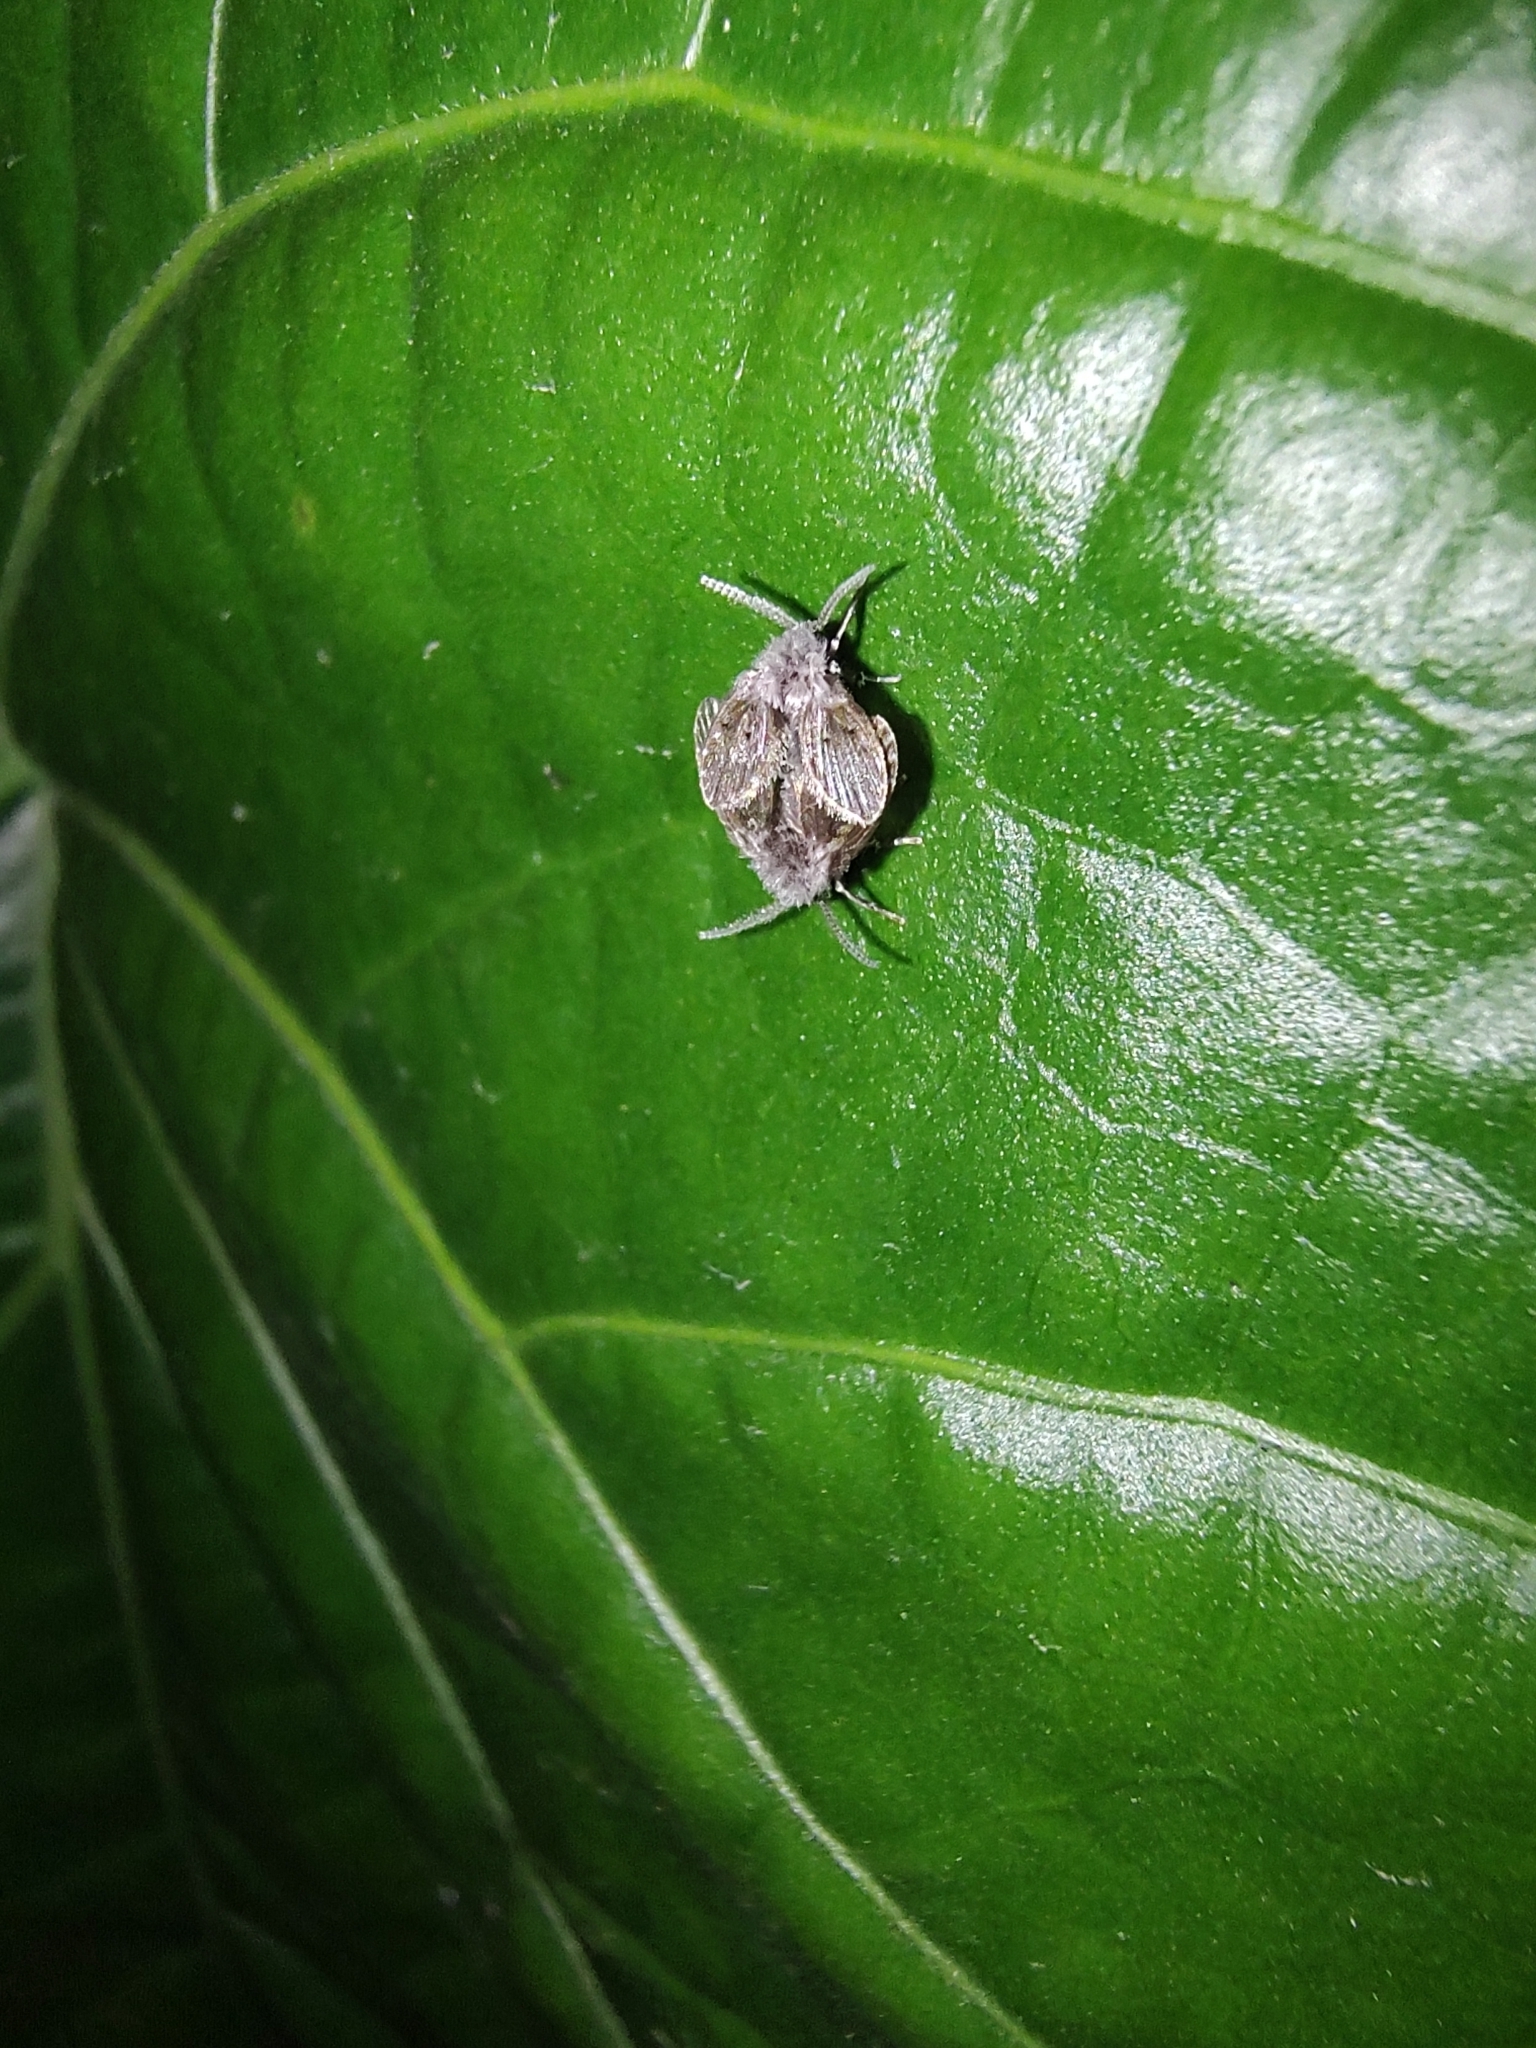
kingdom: Animalia
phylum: Arthropoda
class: Insecta
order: Diptera
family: Psychodidae
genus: Clogmia
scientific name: Clogmia albipunctatus
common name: White-spotted moth fly
